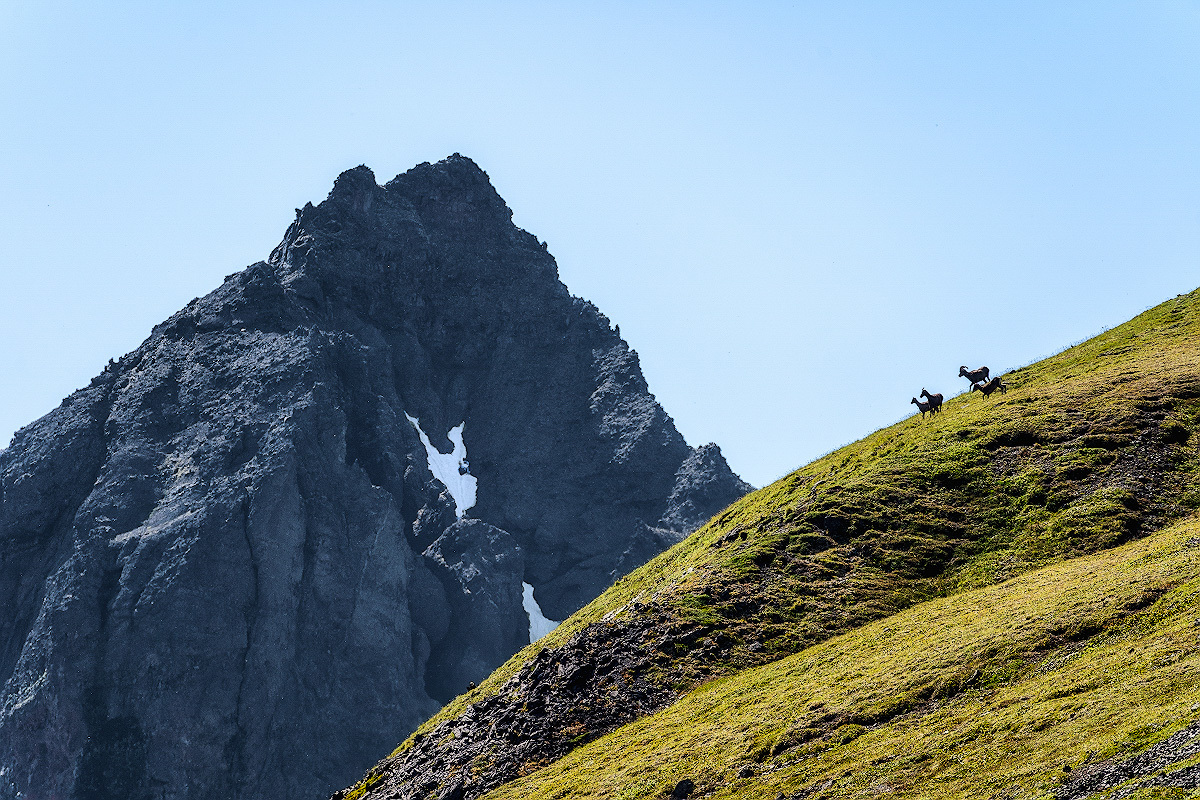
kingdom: Animalia
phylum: Chordata
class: Mammalia
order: Artiodactyla
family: Bovidae
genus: Ovis
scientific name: Ovis nivicola
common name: Snow sheep
